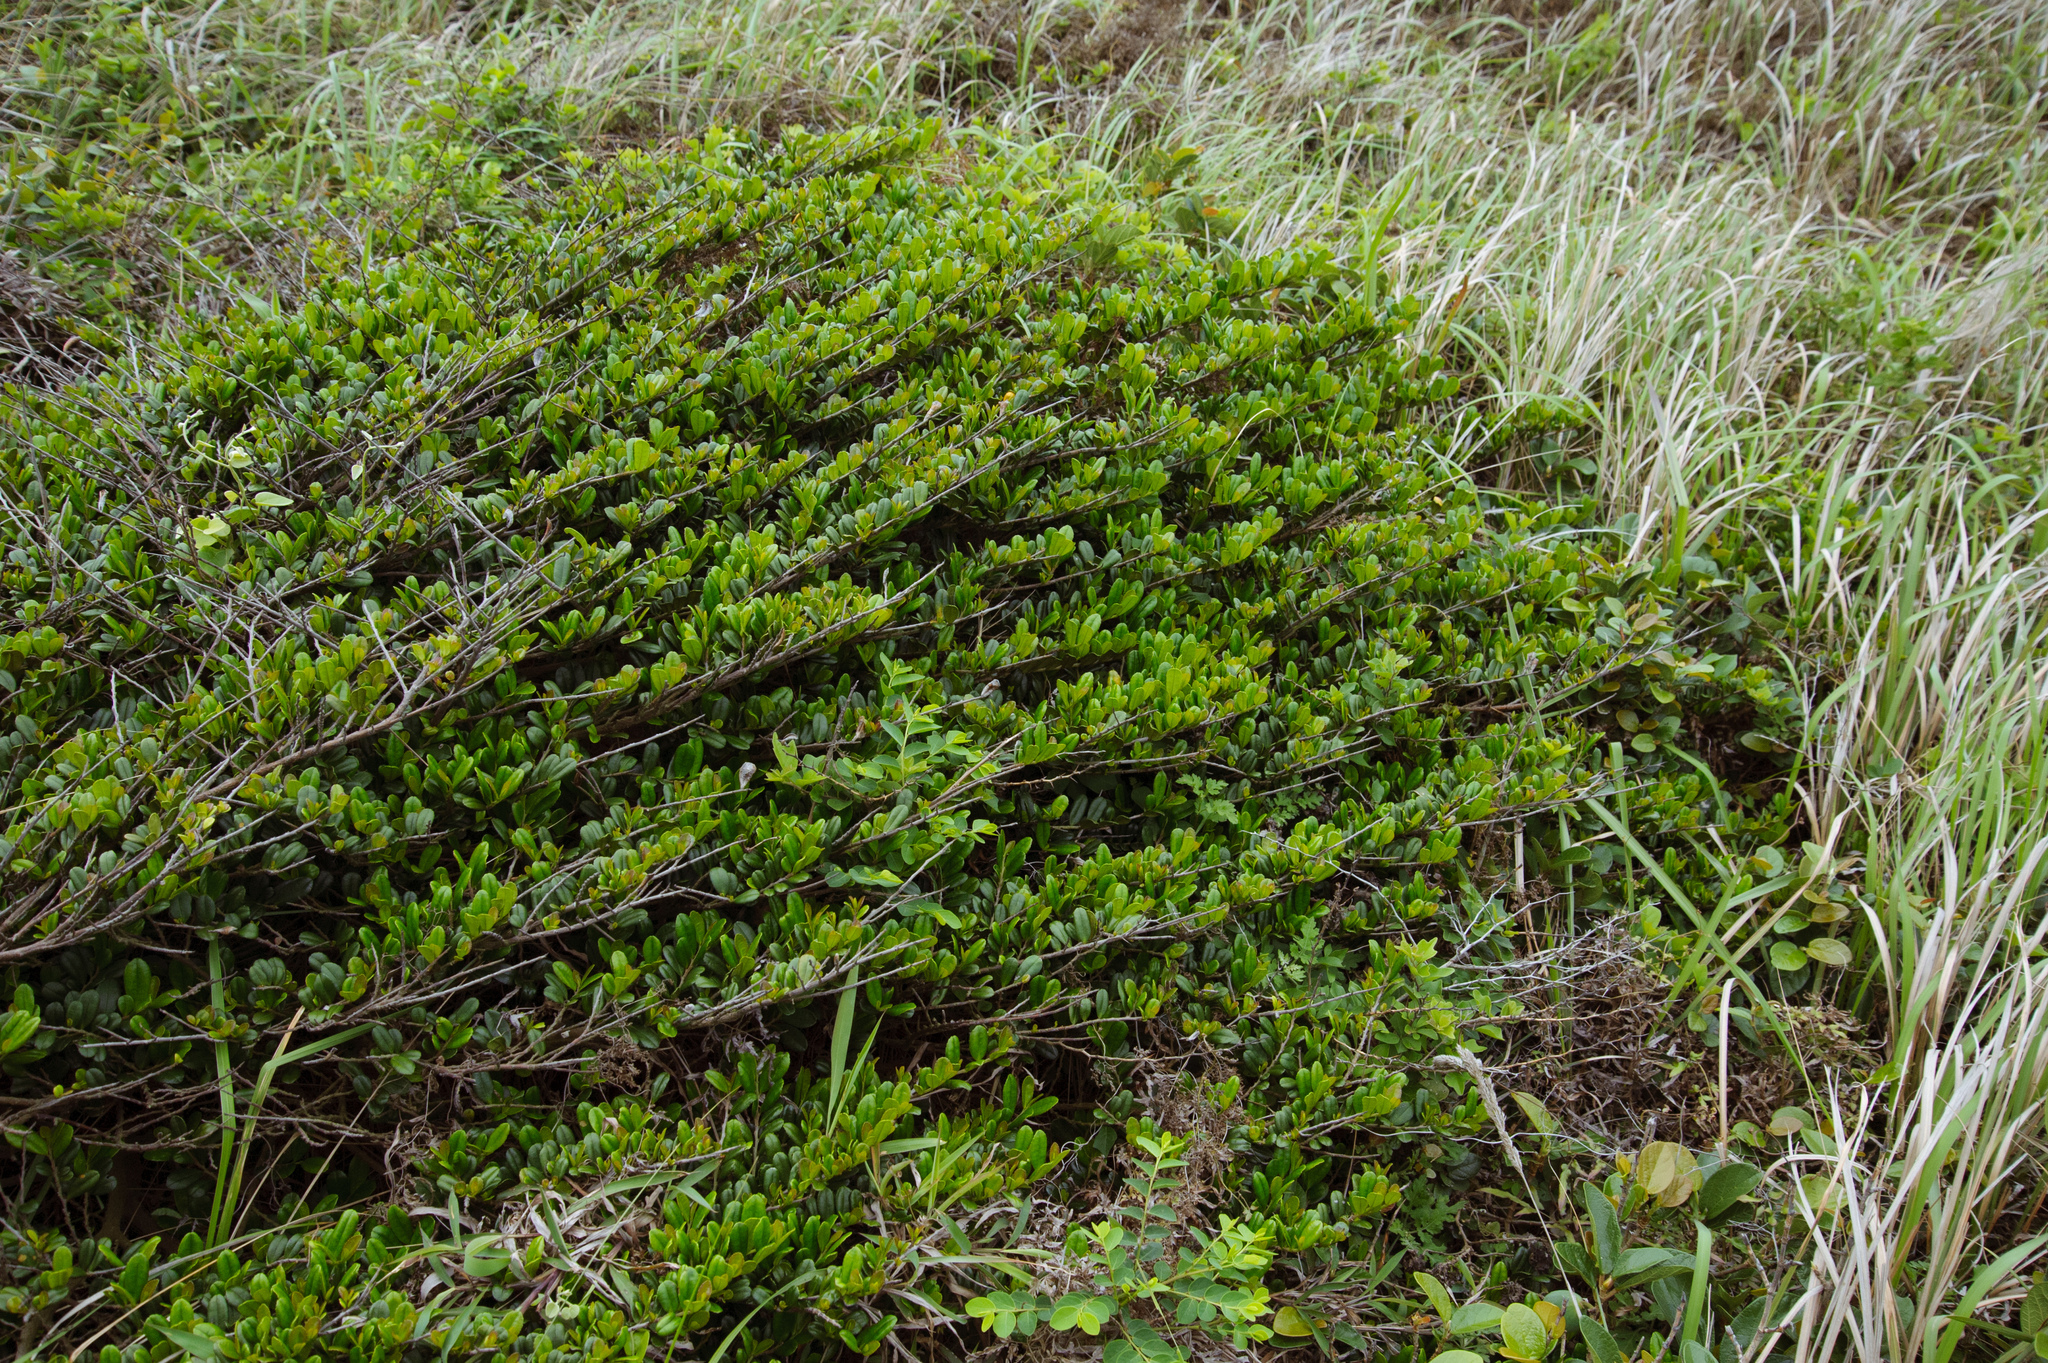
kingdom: Plantae
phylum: Tracheophyta
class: Magnoliopsida
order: Ericales
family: Pentaphylacaceae
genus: Eurya
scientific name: Eurya emarginata
